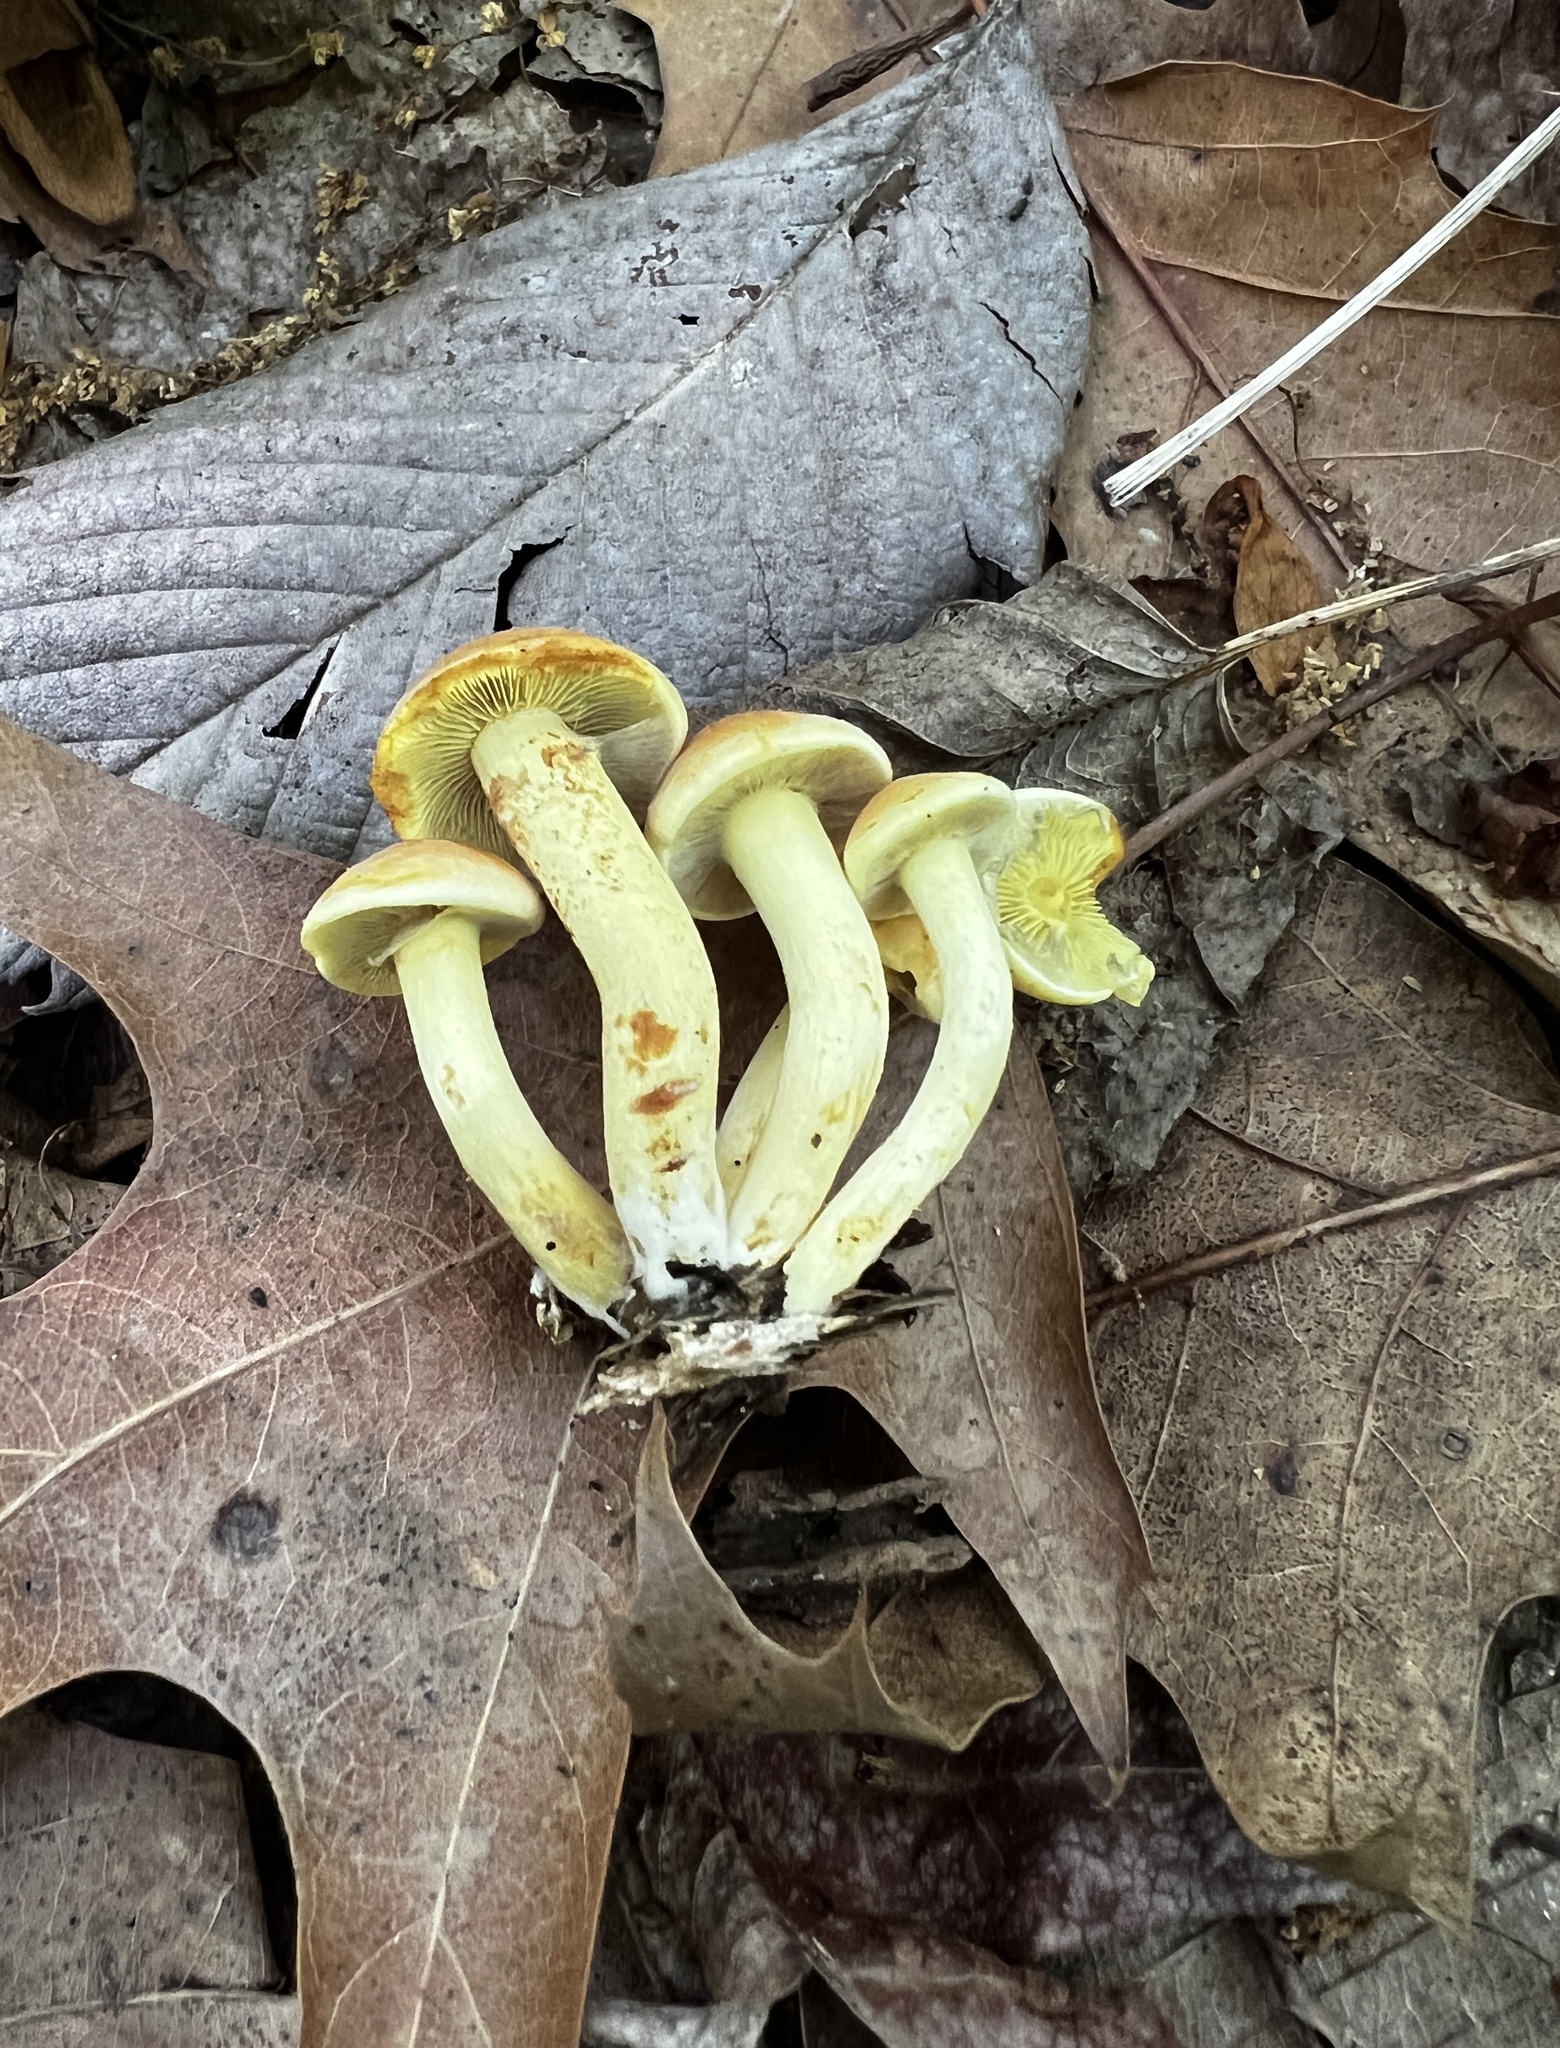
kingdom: Fungi
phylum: Basidiomycota
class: Agaricomycetes
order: Agaricales
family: Strophariaceae
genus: Hypholoma
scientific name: Hypholoma fasciculare
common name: Sulphur tuft
